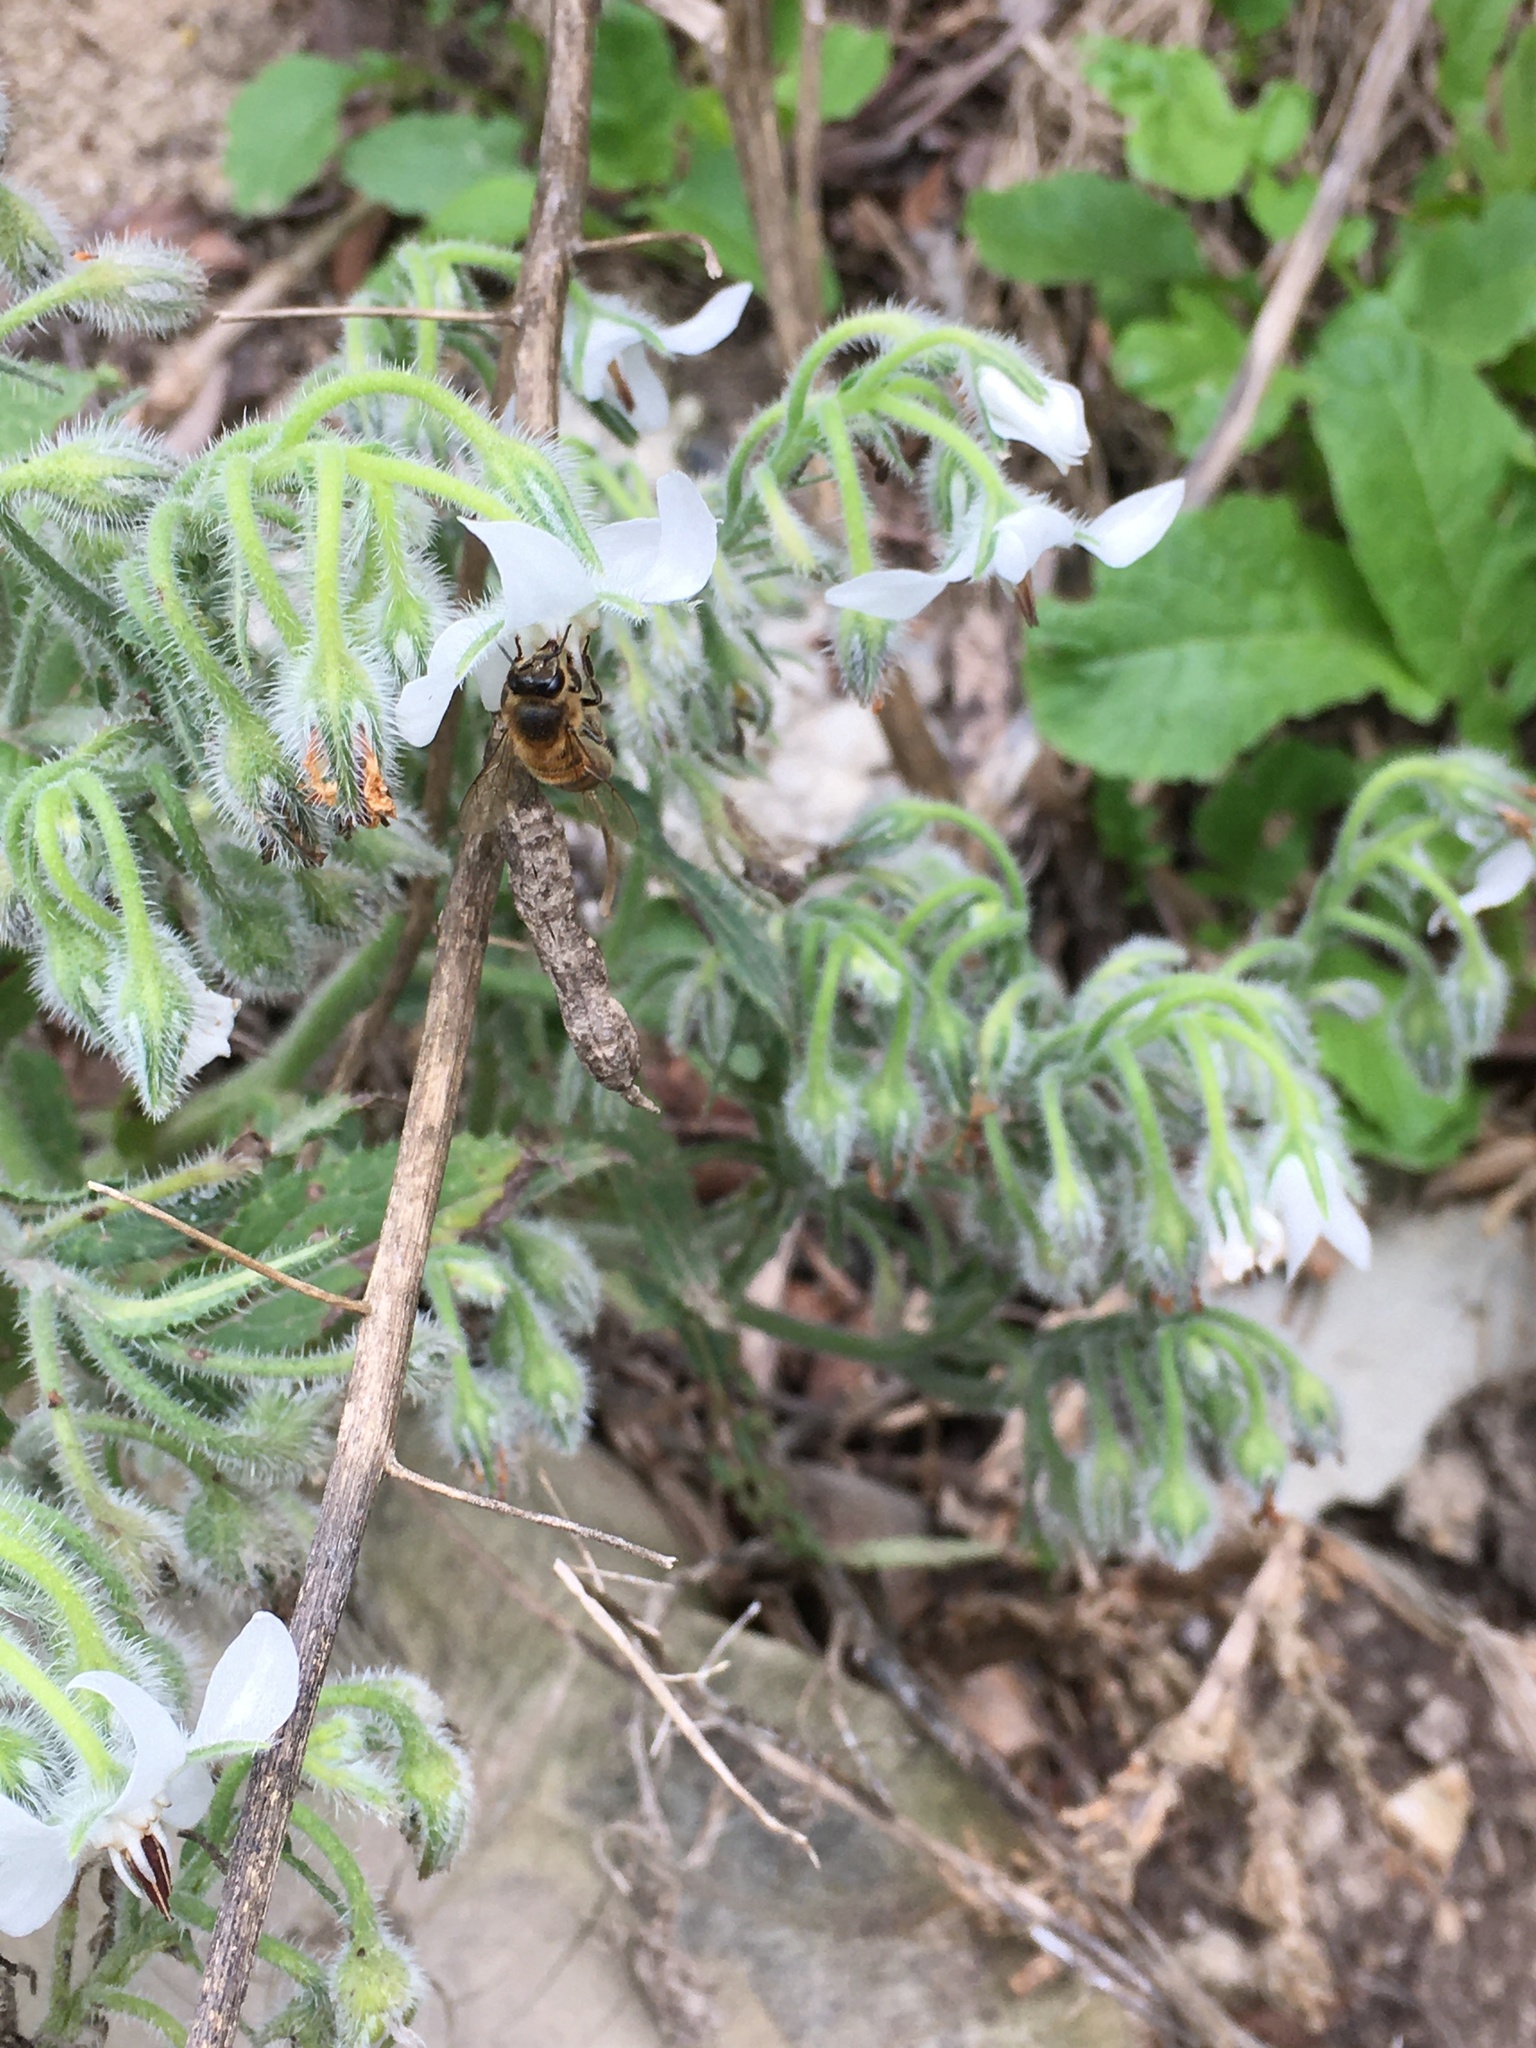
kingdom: Plantae
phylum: Tracheophyta
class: Magnoliopsida
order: Boraginales
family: Boraginaceae
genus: Borago
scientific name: Borago officinalis
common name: Borage
